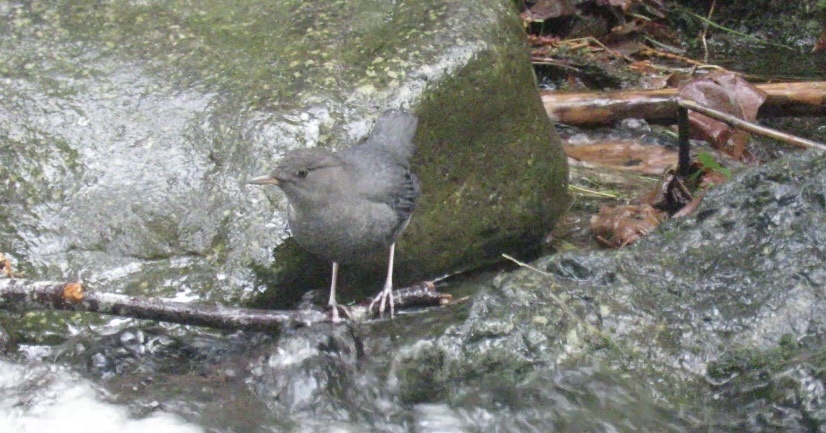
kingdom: Animalia
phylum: Chordata
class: Aves
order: Passeriformes
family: Cinclidae
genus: Cinclus
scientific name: Cinclus mexicanus
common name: American dipper
